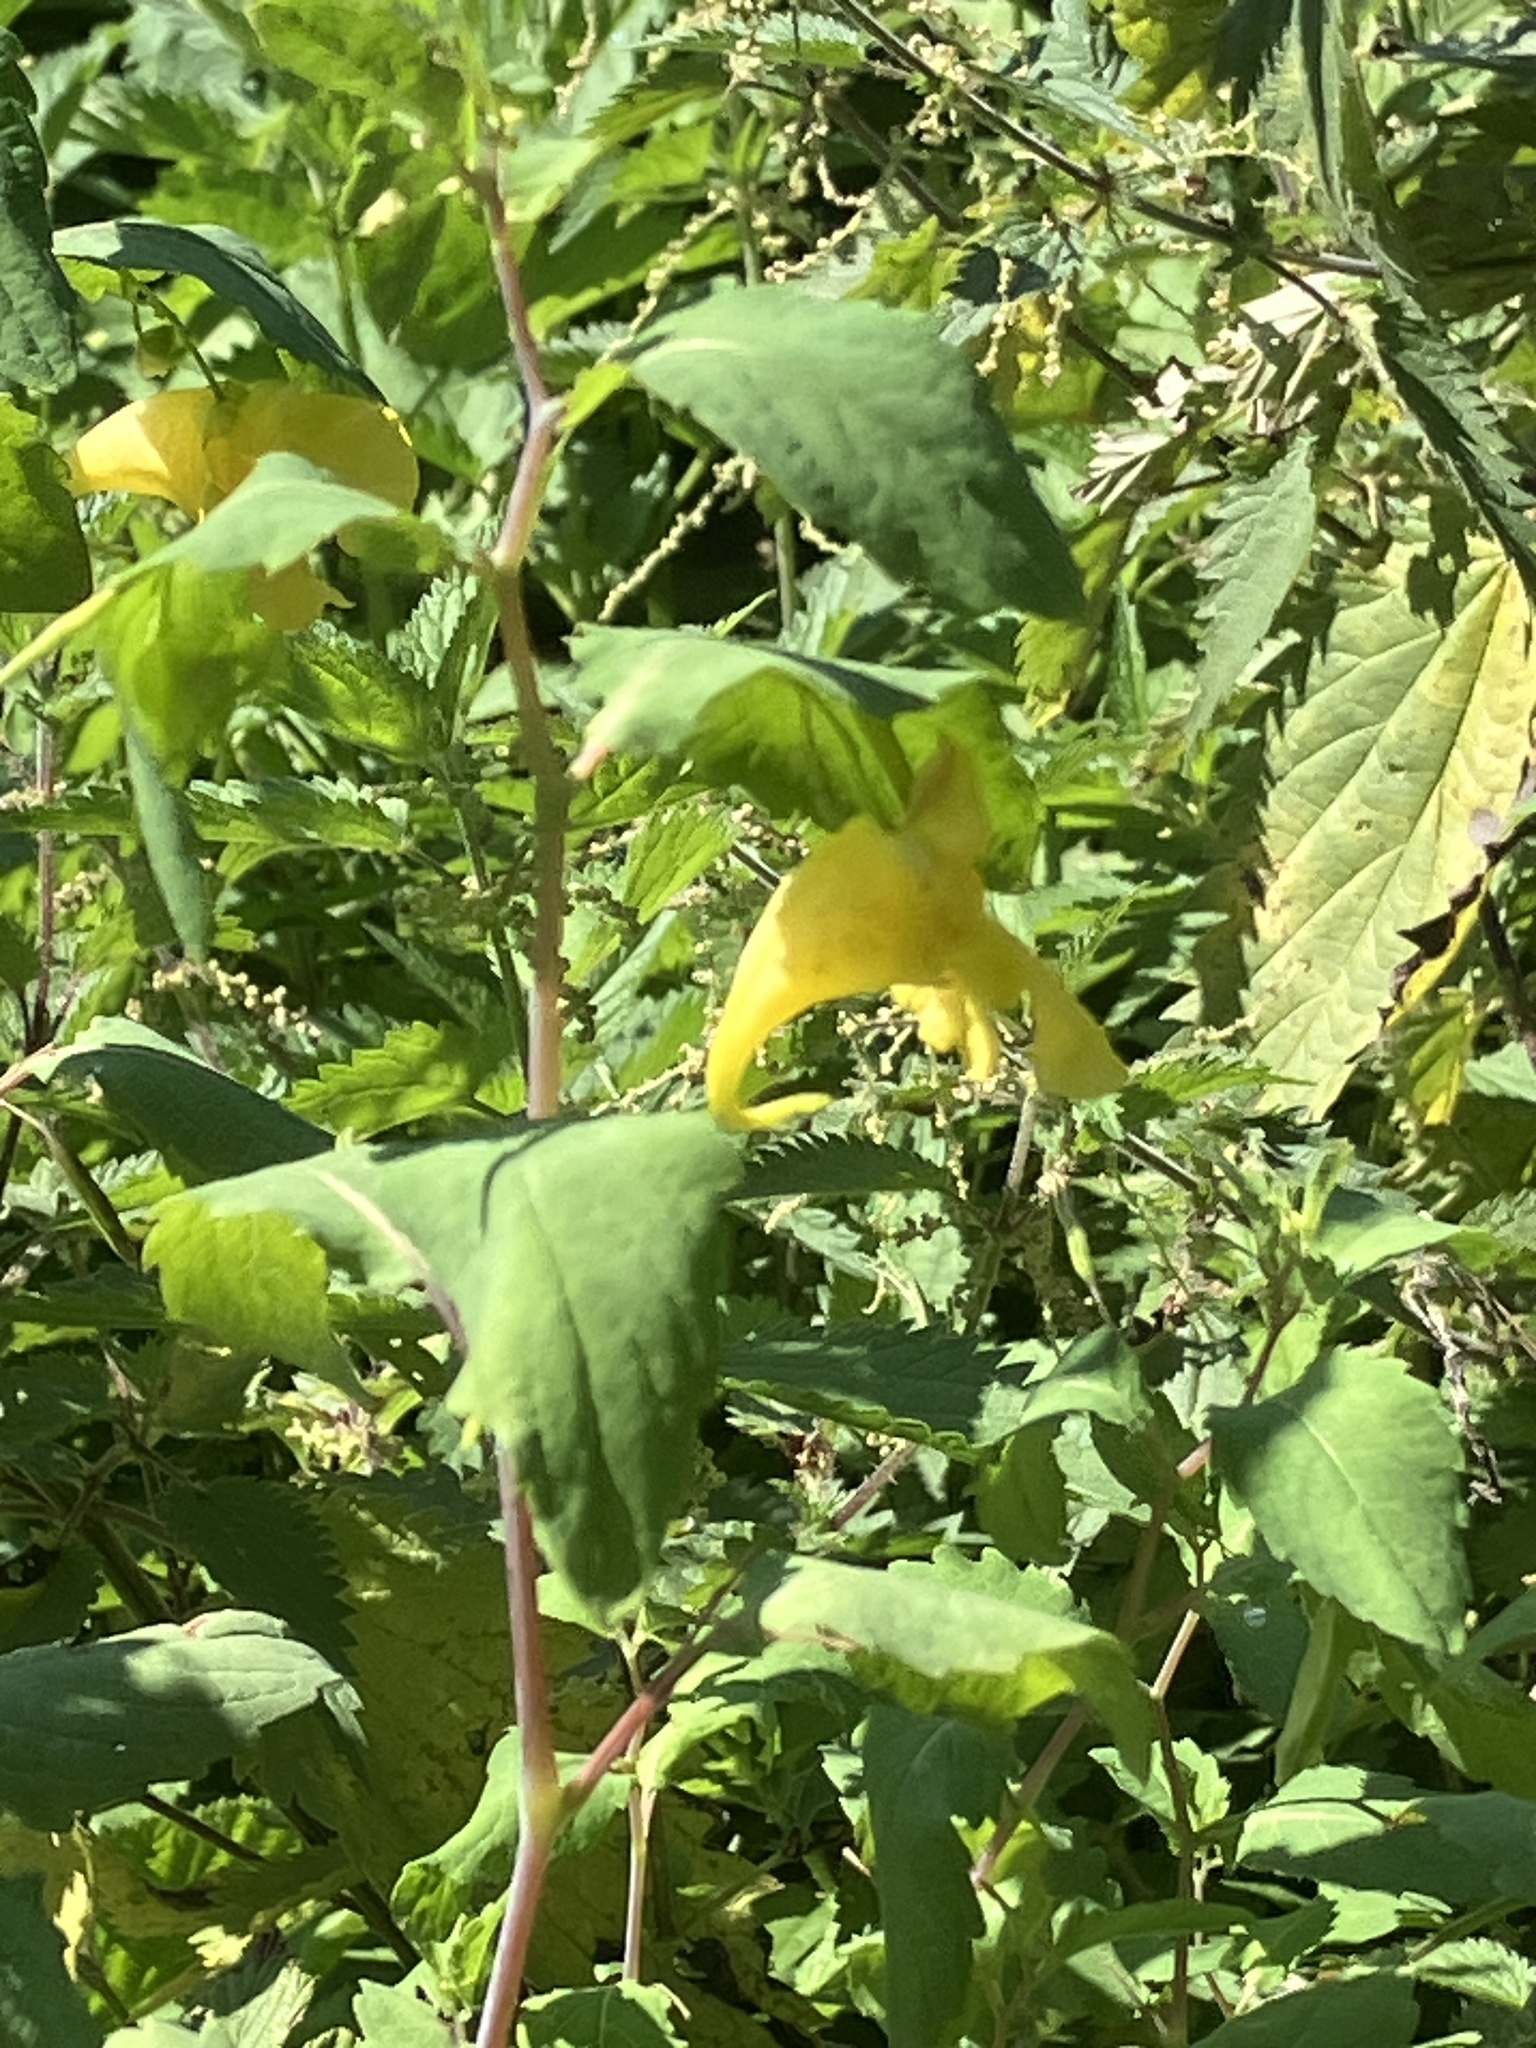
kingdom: Plantae
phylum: Tracheophyta
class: Magnoliopsida
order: Ericales
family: Balsaminaceae
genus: Impatiens
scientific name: Impatiens noli-tangere
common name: Touch-me-not balsam
